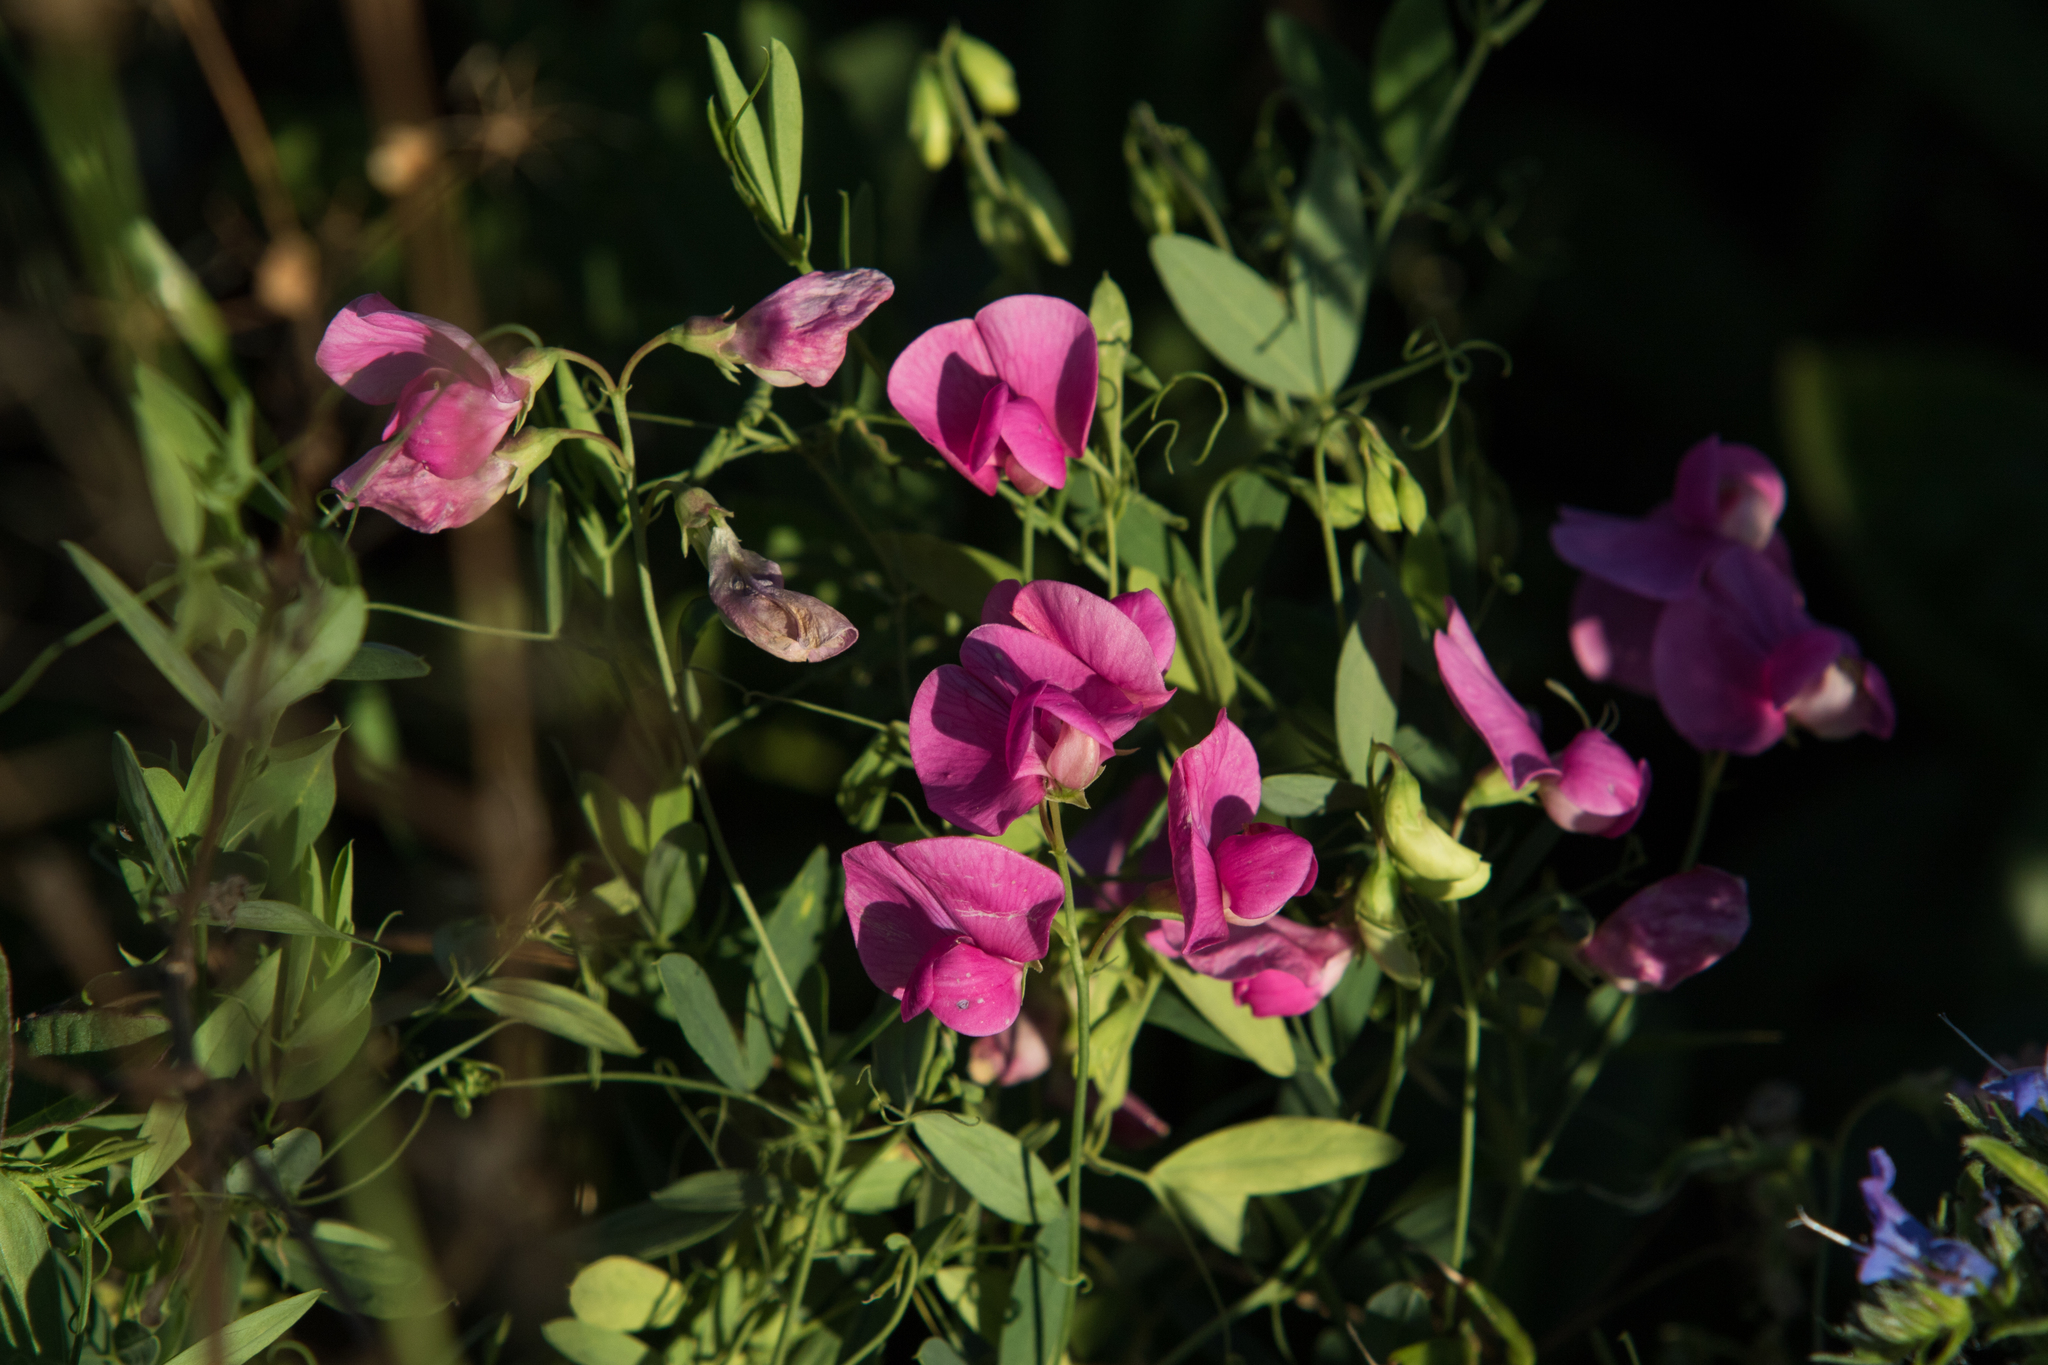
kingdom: Plantae
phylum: Tracheophyta
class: Magnoliopsida
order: Fabales
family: Fabaceae
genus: Lathyrus
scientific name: Lathyrus tuberosus
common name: Tuberous pea
